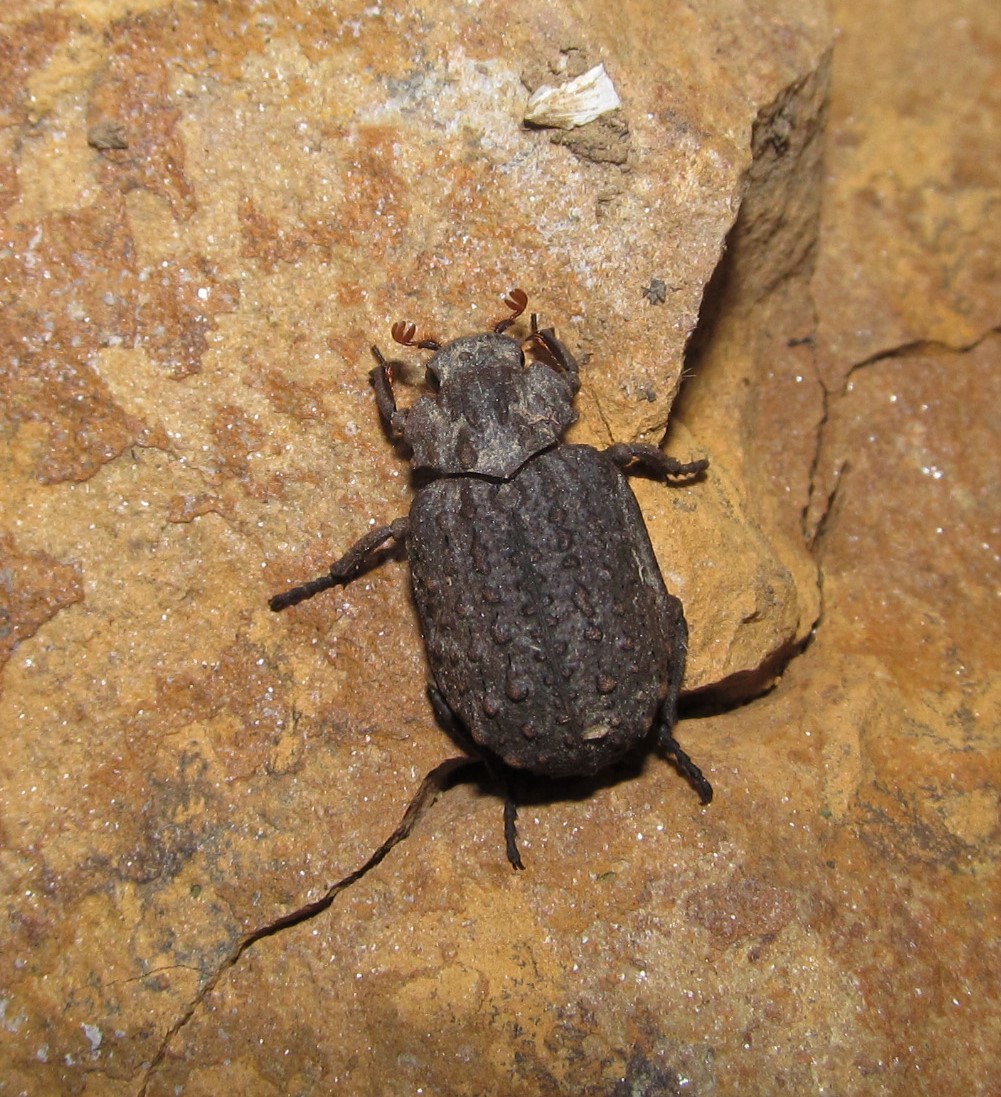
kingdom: Animalia
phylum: Arthropoda
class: Insecta
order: Coleoptera
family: Trogidae
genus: Omorgus
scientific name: Omorgus asper
